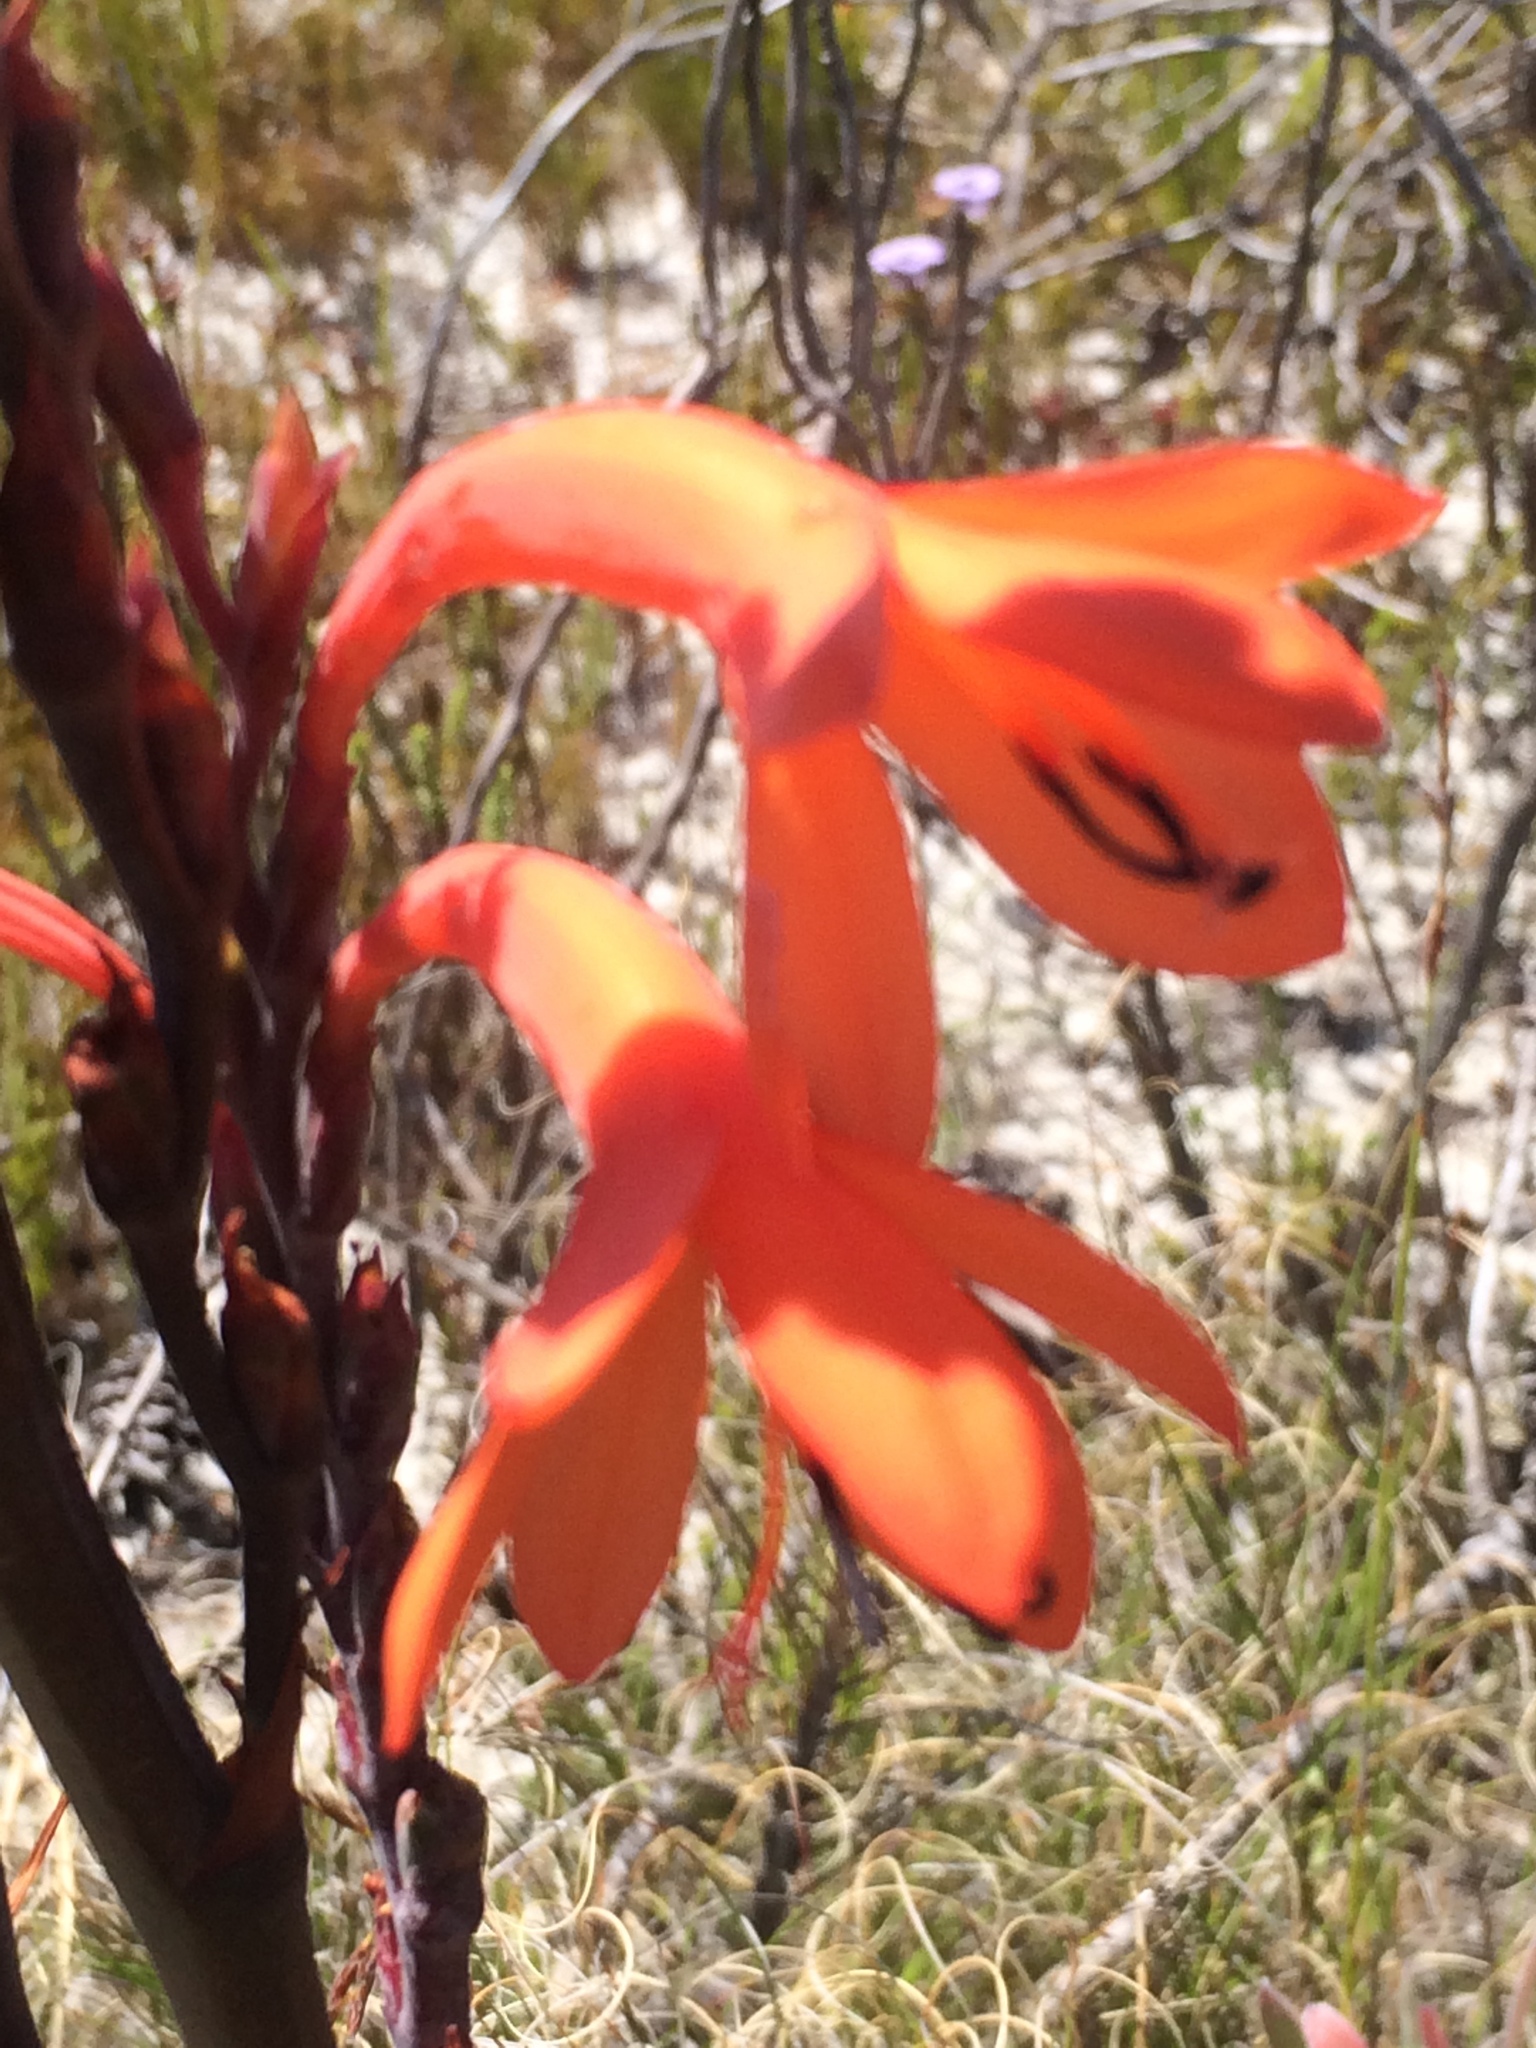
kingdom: Plantae
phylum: Tracheophyta
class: Liliopsida
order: Asparagales
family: Iridaceae
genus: Watsonia
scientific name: Watsonia tabularis
